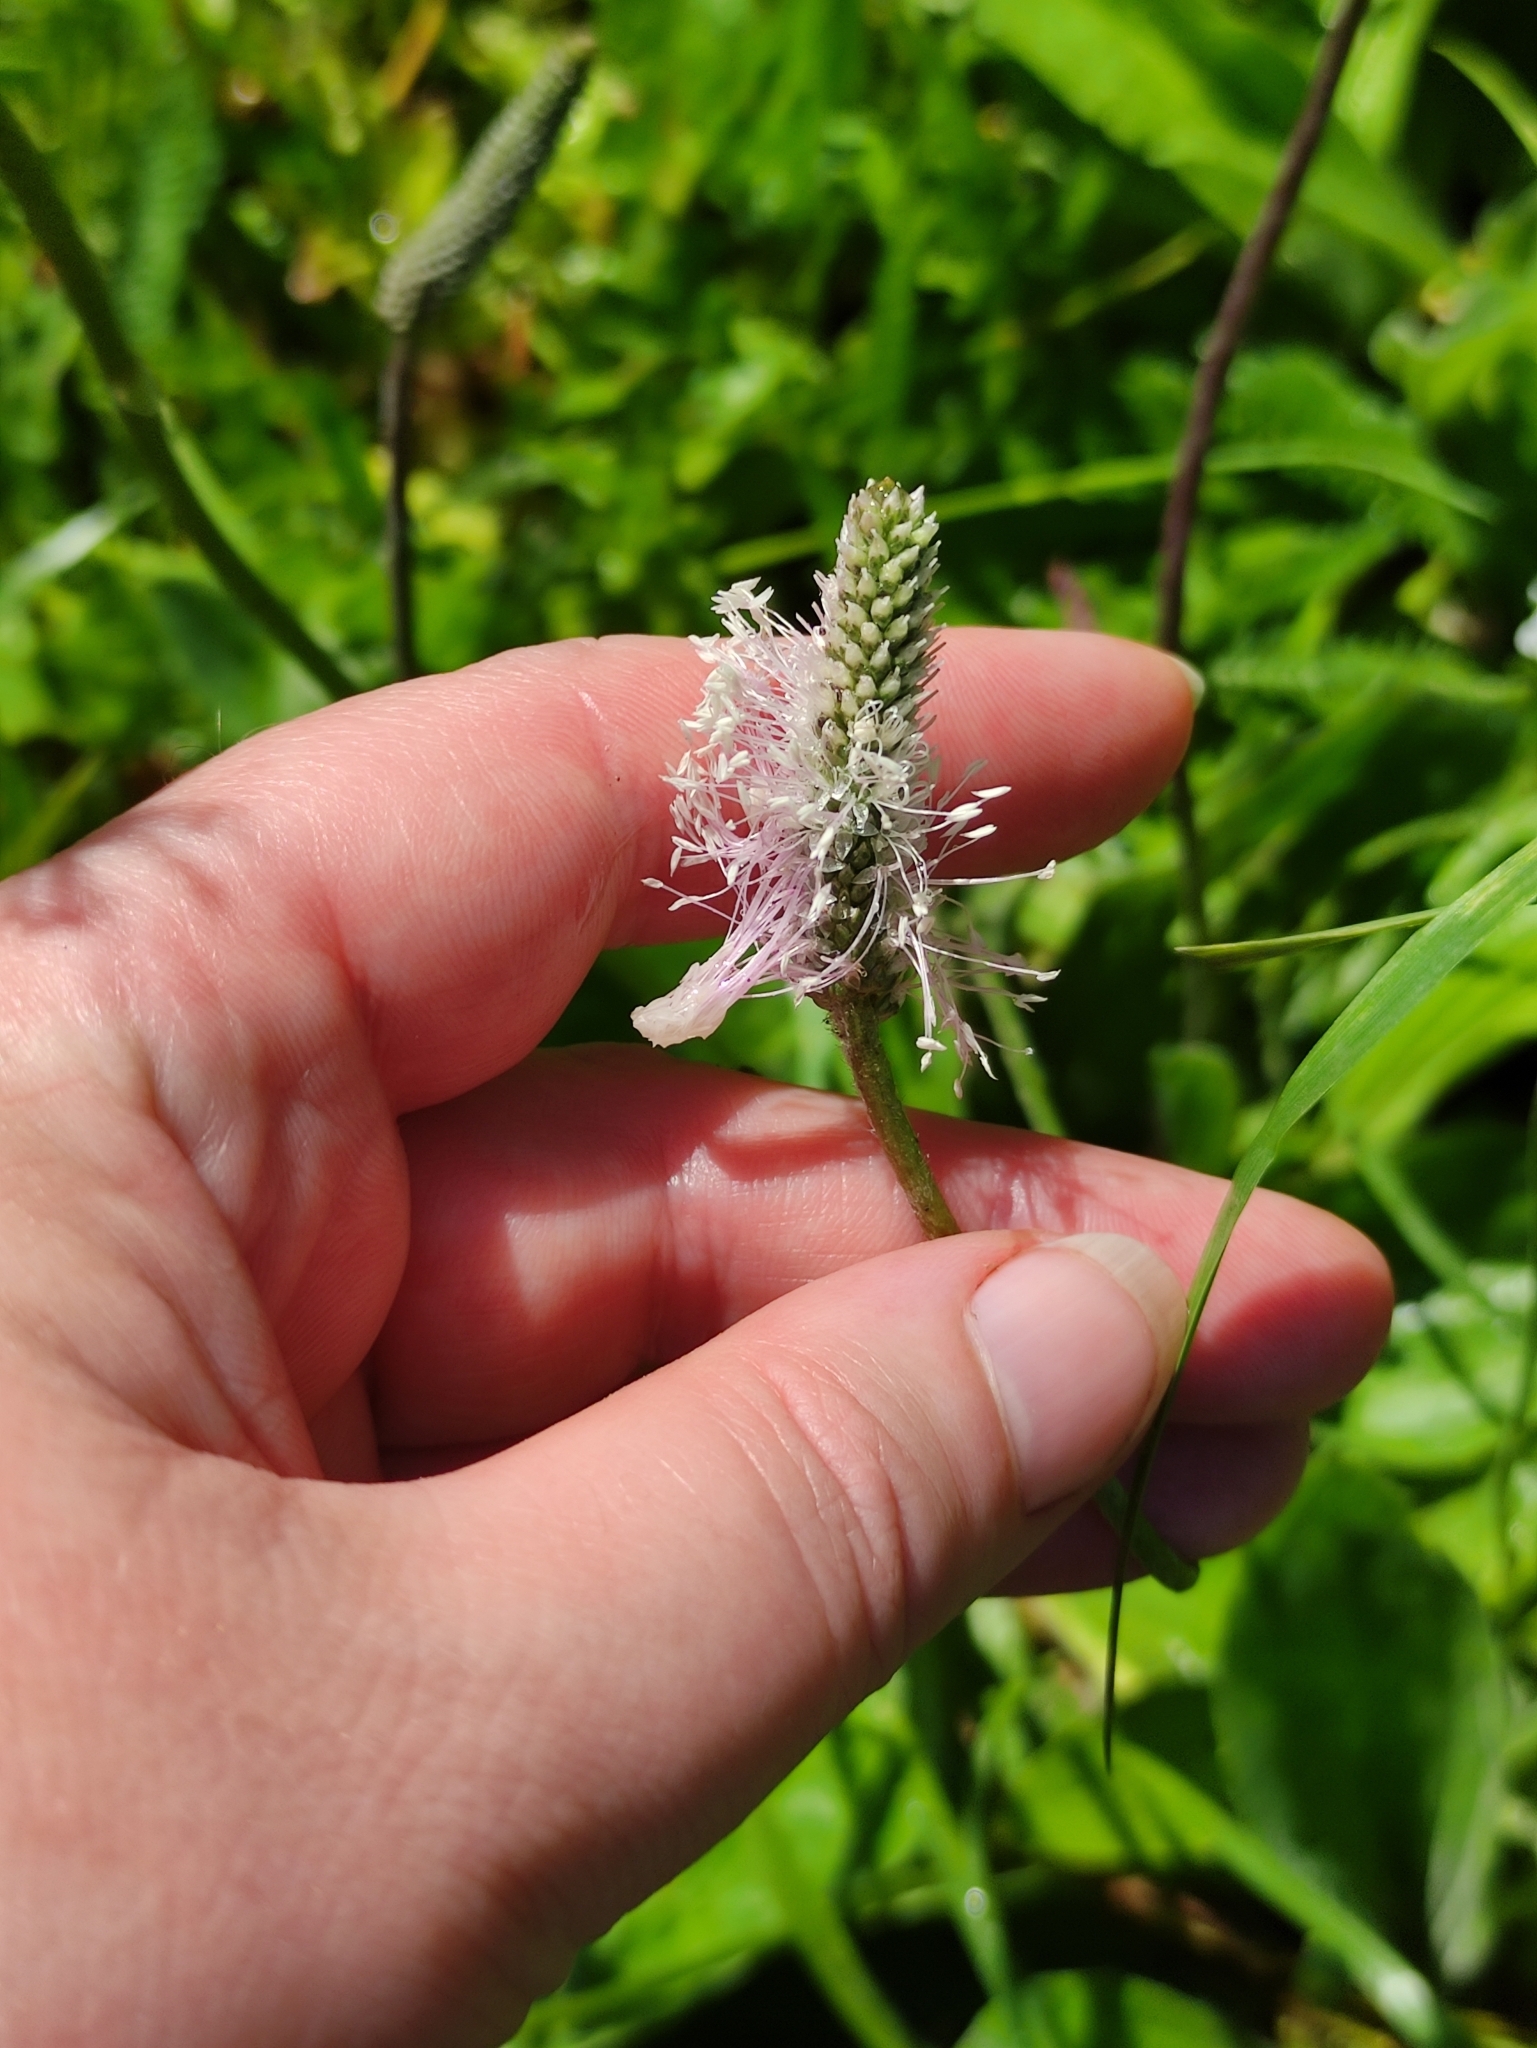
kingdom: Plantae
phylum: Tracheophyta
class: Magnoliopsida
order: Lamiales
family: Plantaginaceae
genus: Plantago
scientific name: Plantago media
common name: Hoary plantain
